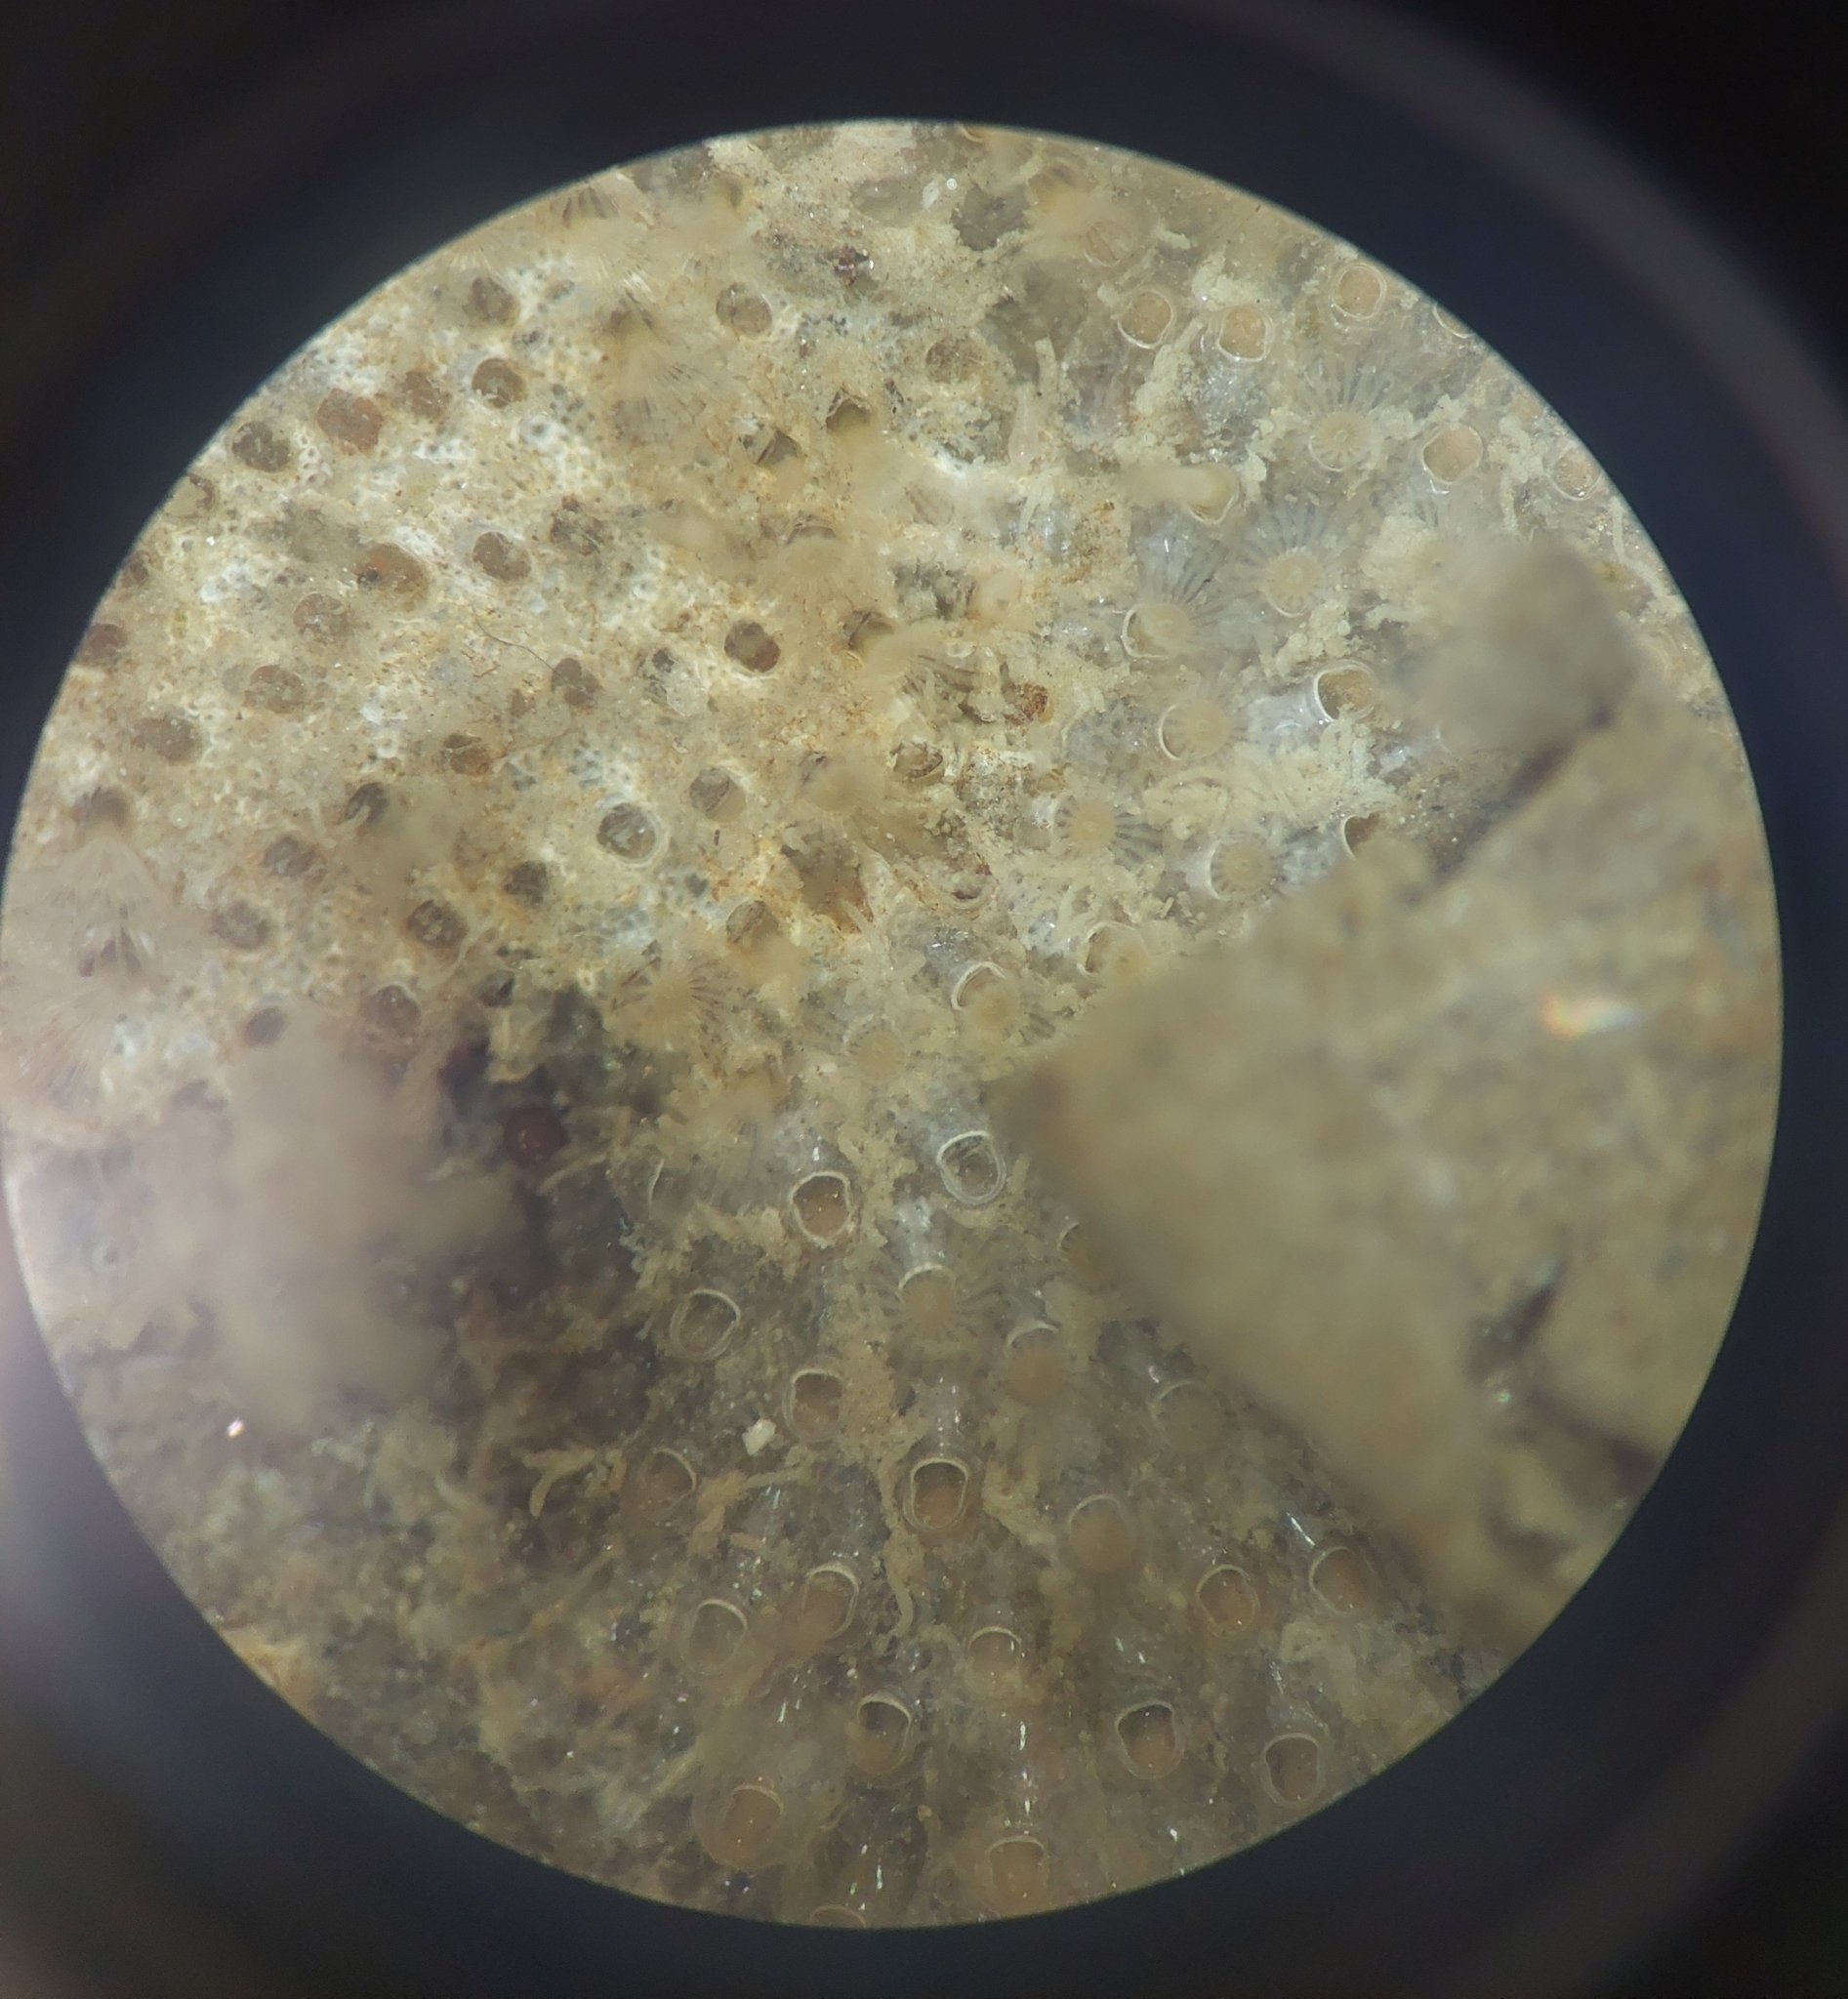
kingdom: Animalia
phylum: Bryozoa
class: Gymnolaemata
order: Cheilostomatida
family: Cryptosulidae
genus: Cryptosula
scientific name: Cryptosula pallasiana
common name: Red crust
